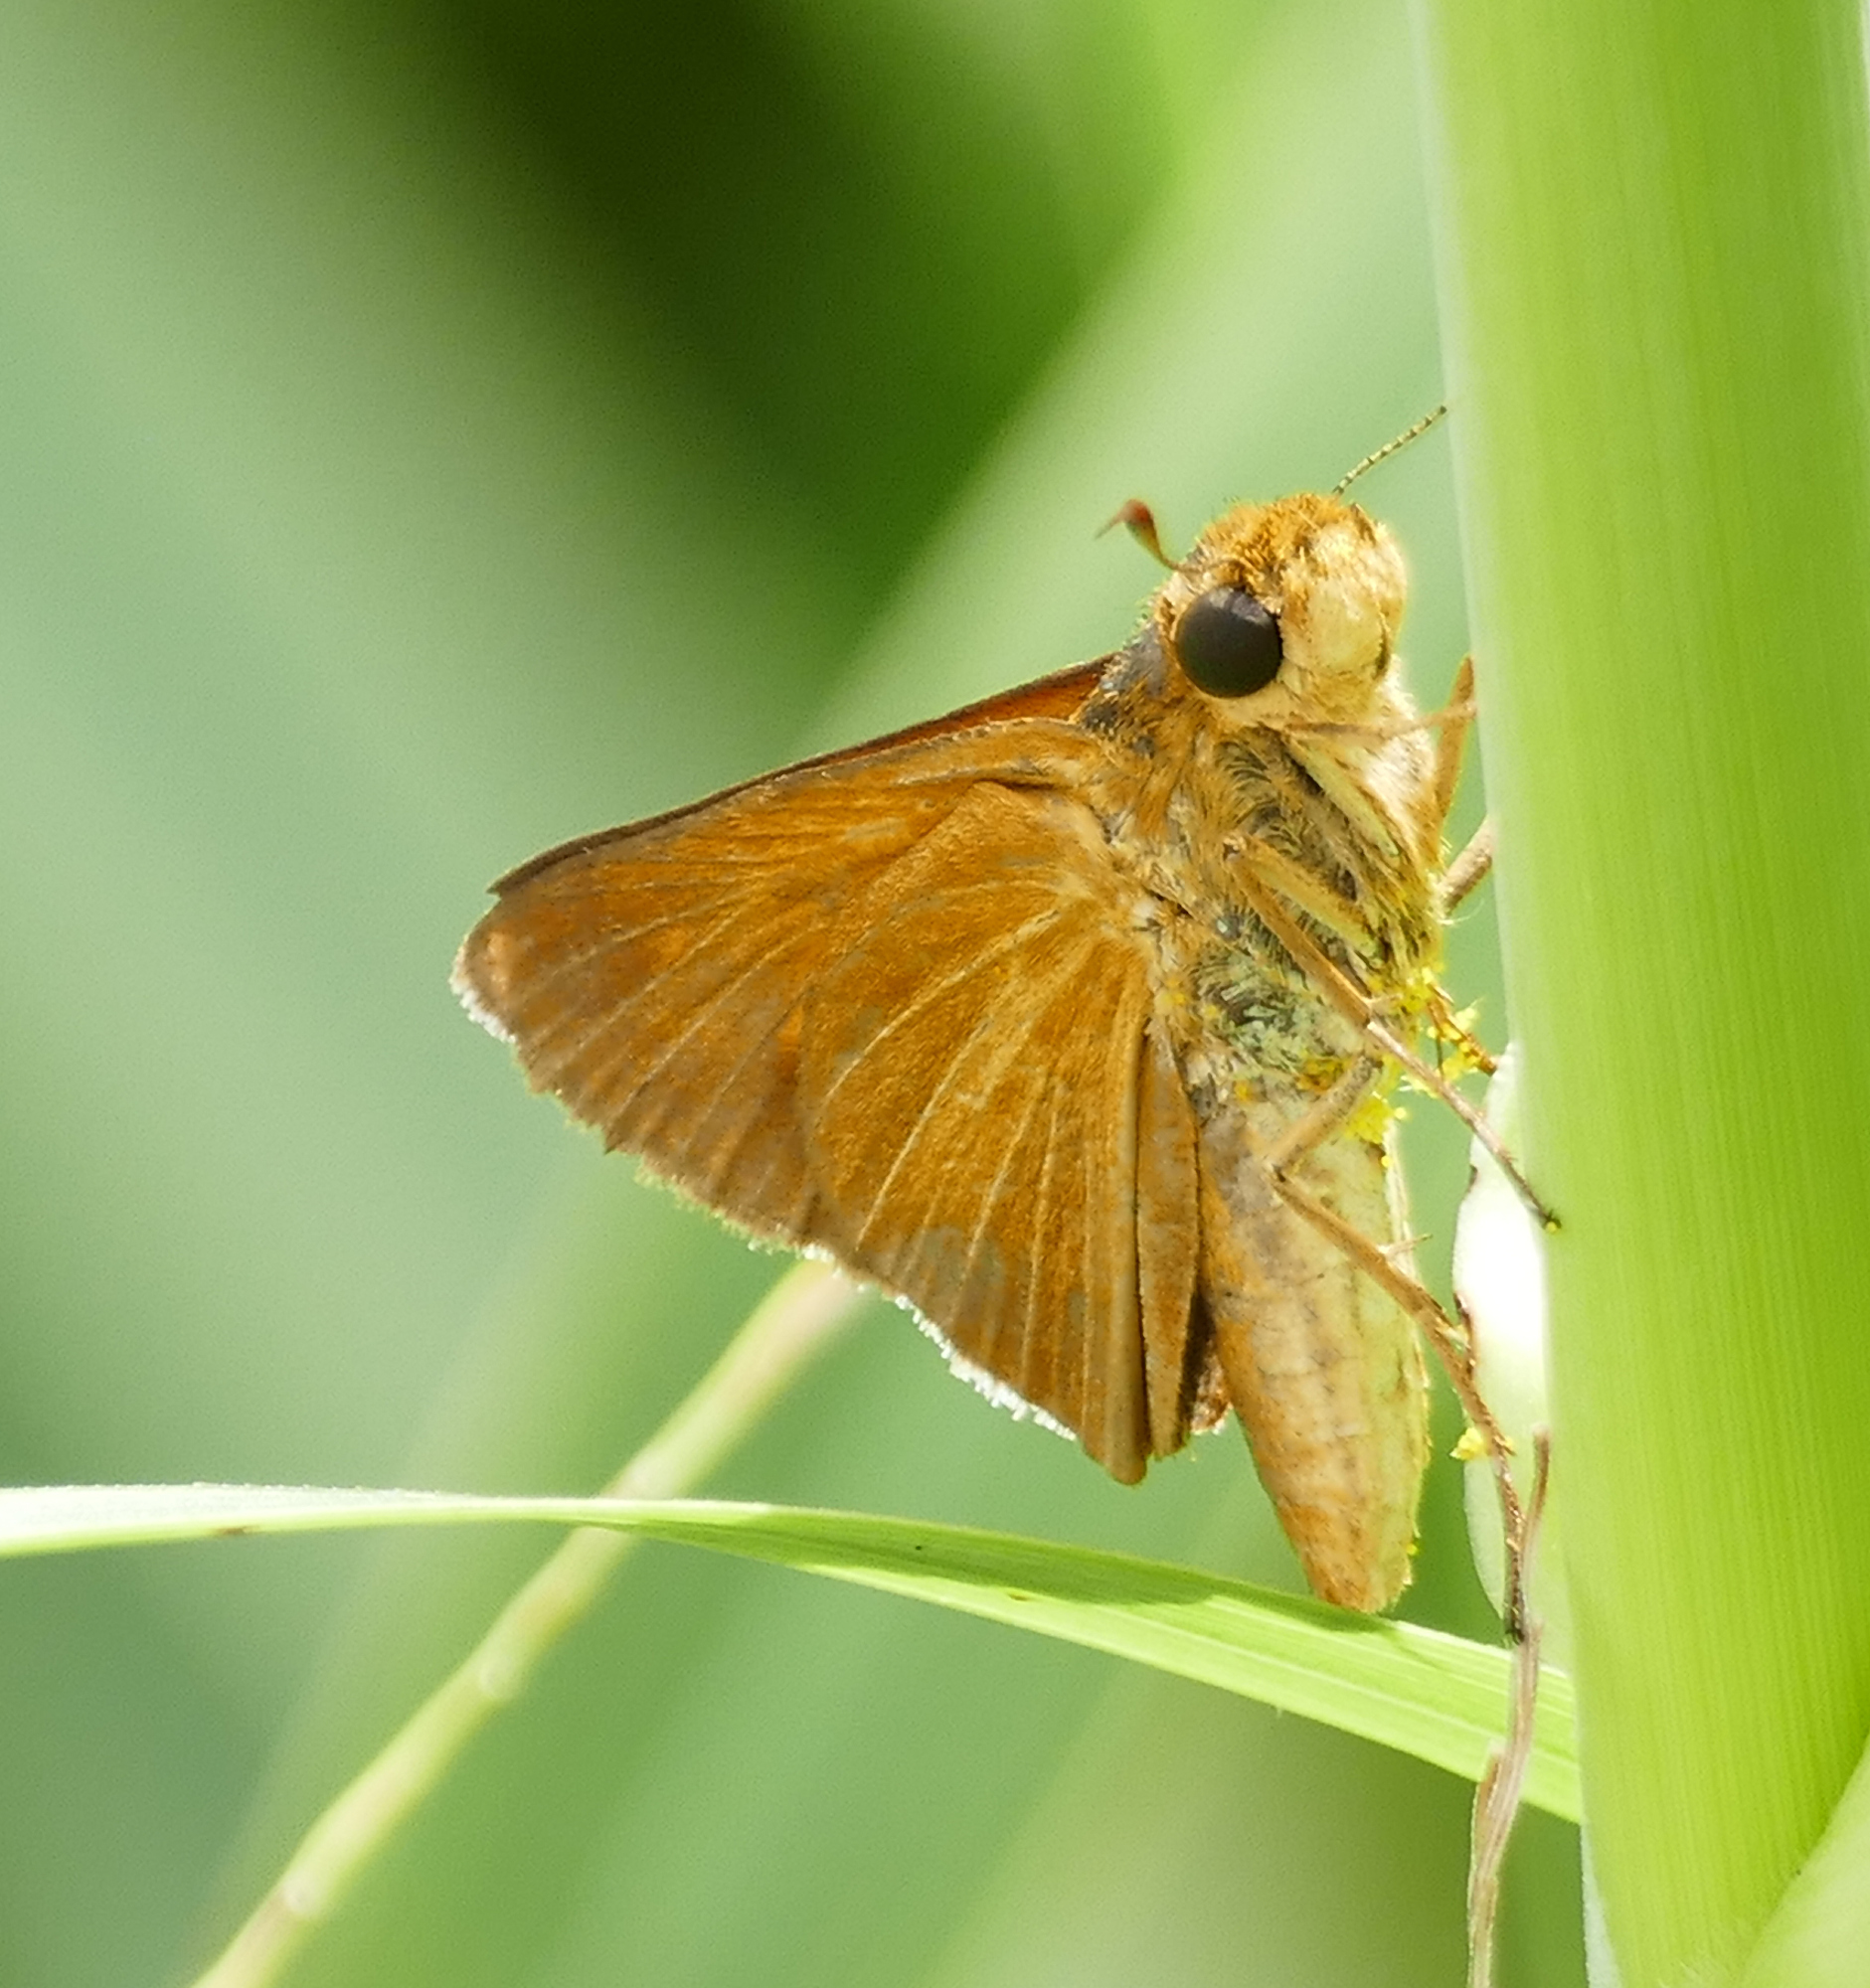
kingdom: Animalia
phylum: Arthropoda
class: Insecta
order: Lepidoptera
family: Hesperiidae
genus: Euphyes
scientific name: Euphyes dion
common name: Dion skipper
